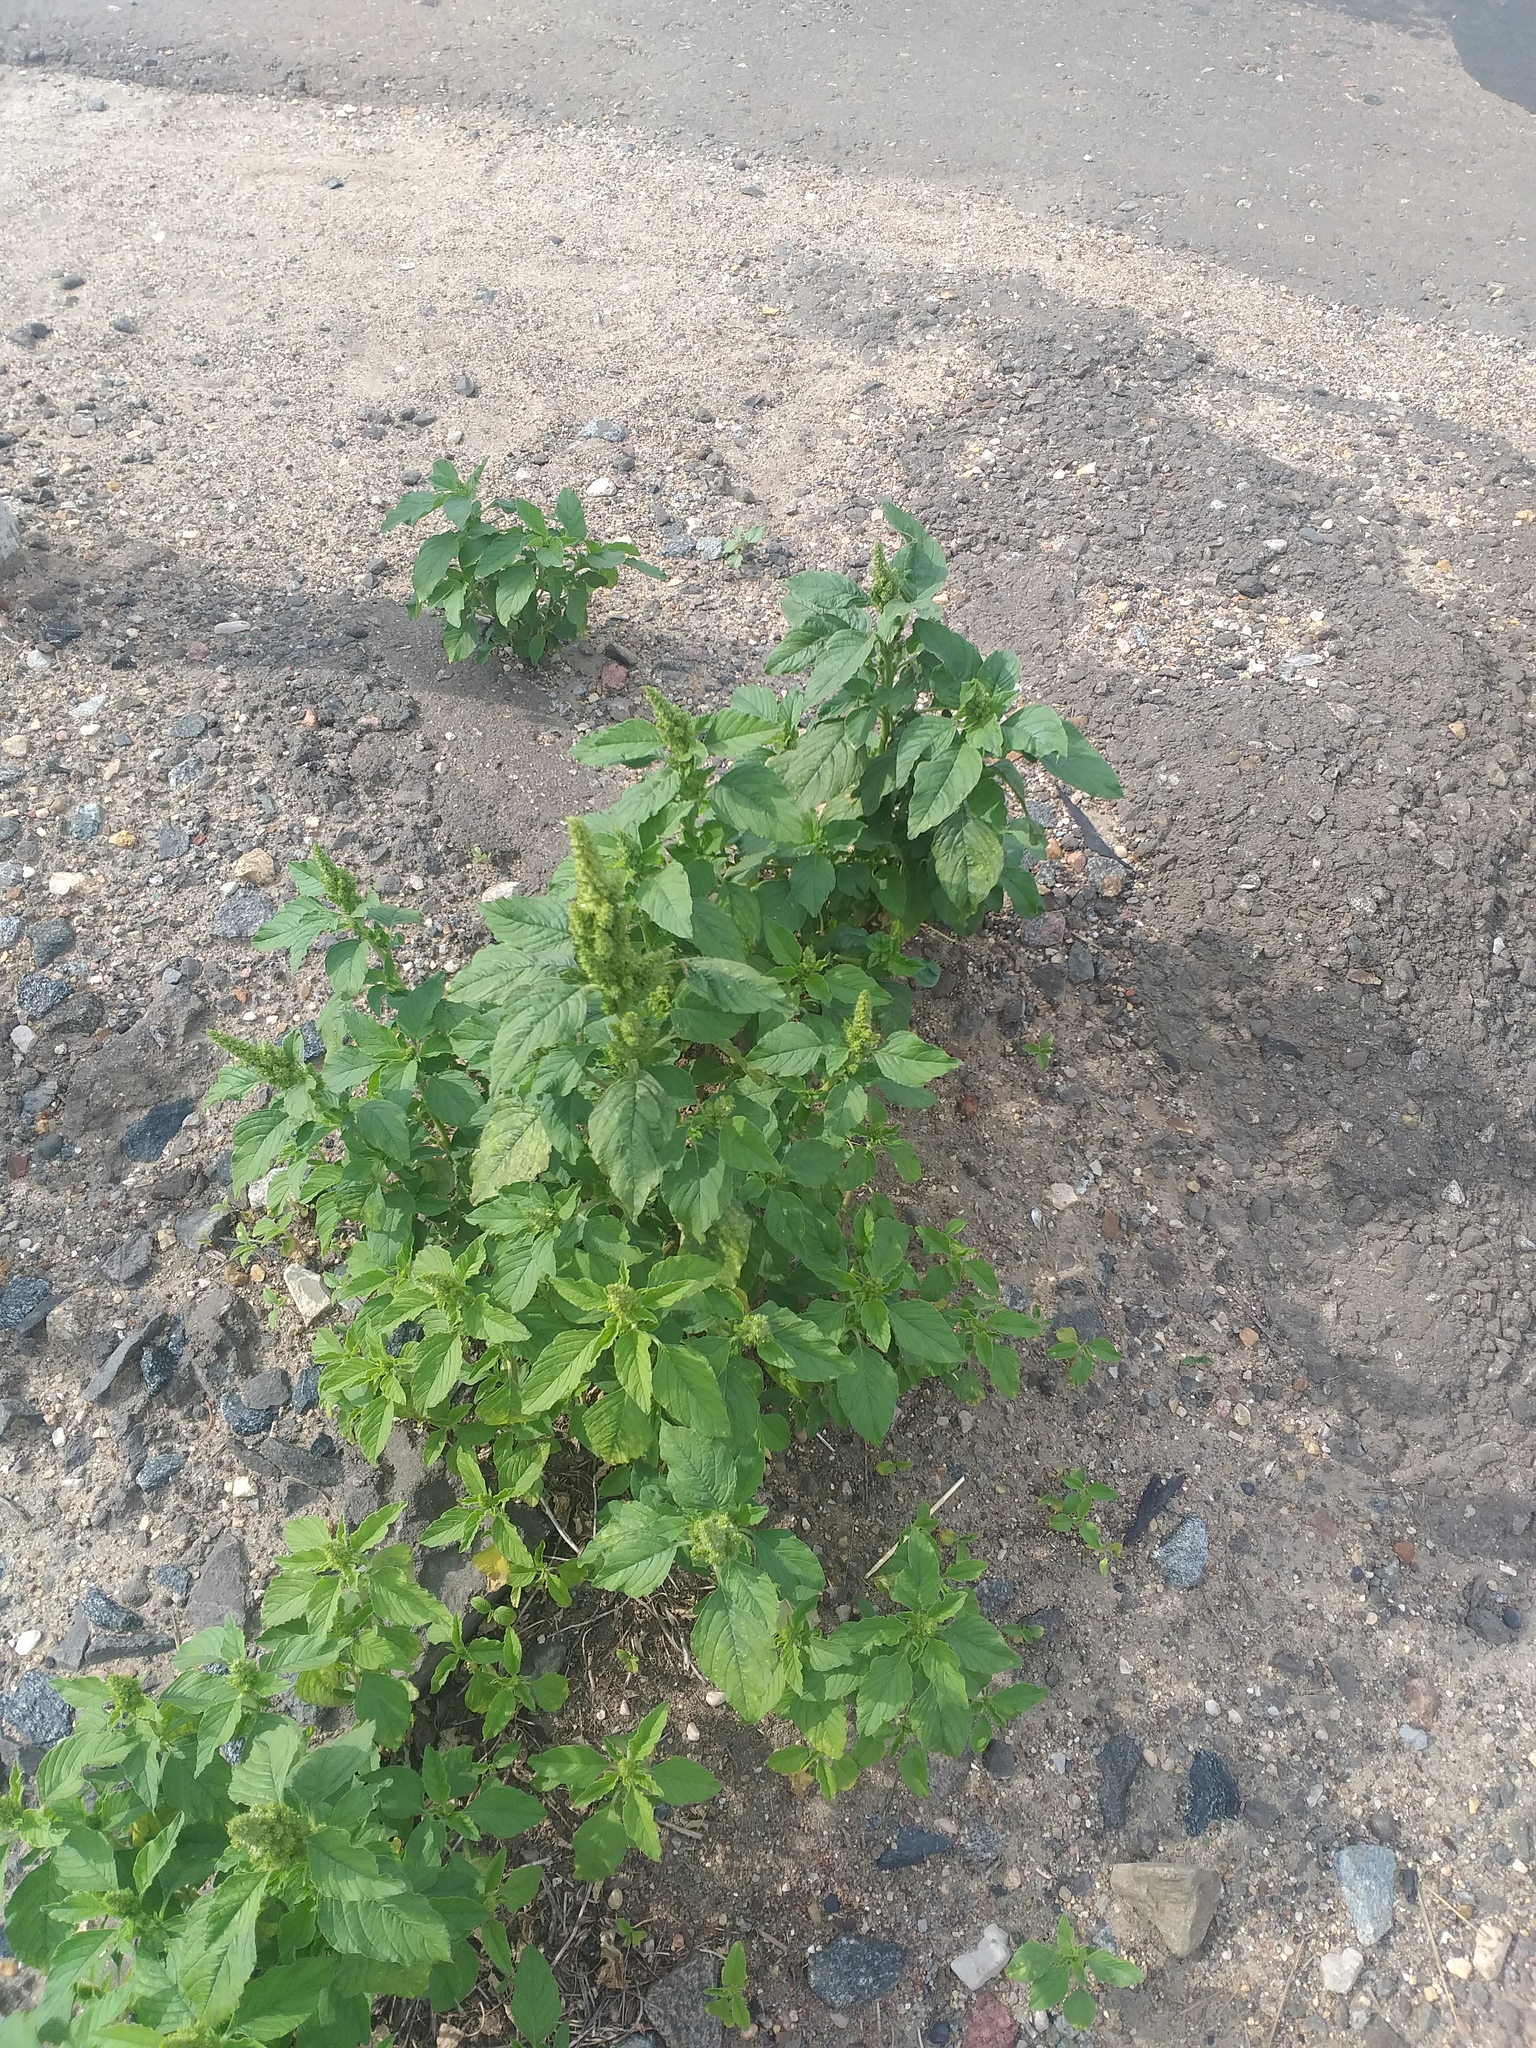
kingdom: Plantae
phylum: Tracheophyta
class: Magnoliopsida
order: Caryophyllales
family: Amaranthaceae
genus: Amaranthus
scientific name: Amaranthus retroflexus
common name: Redroot amaranth
